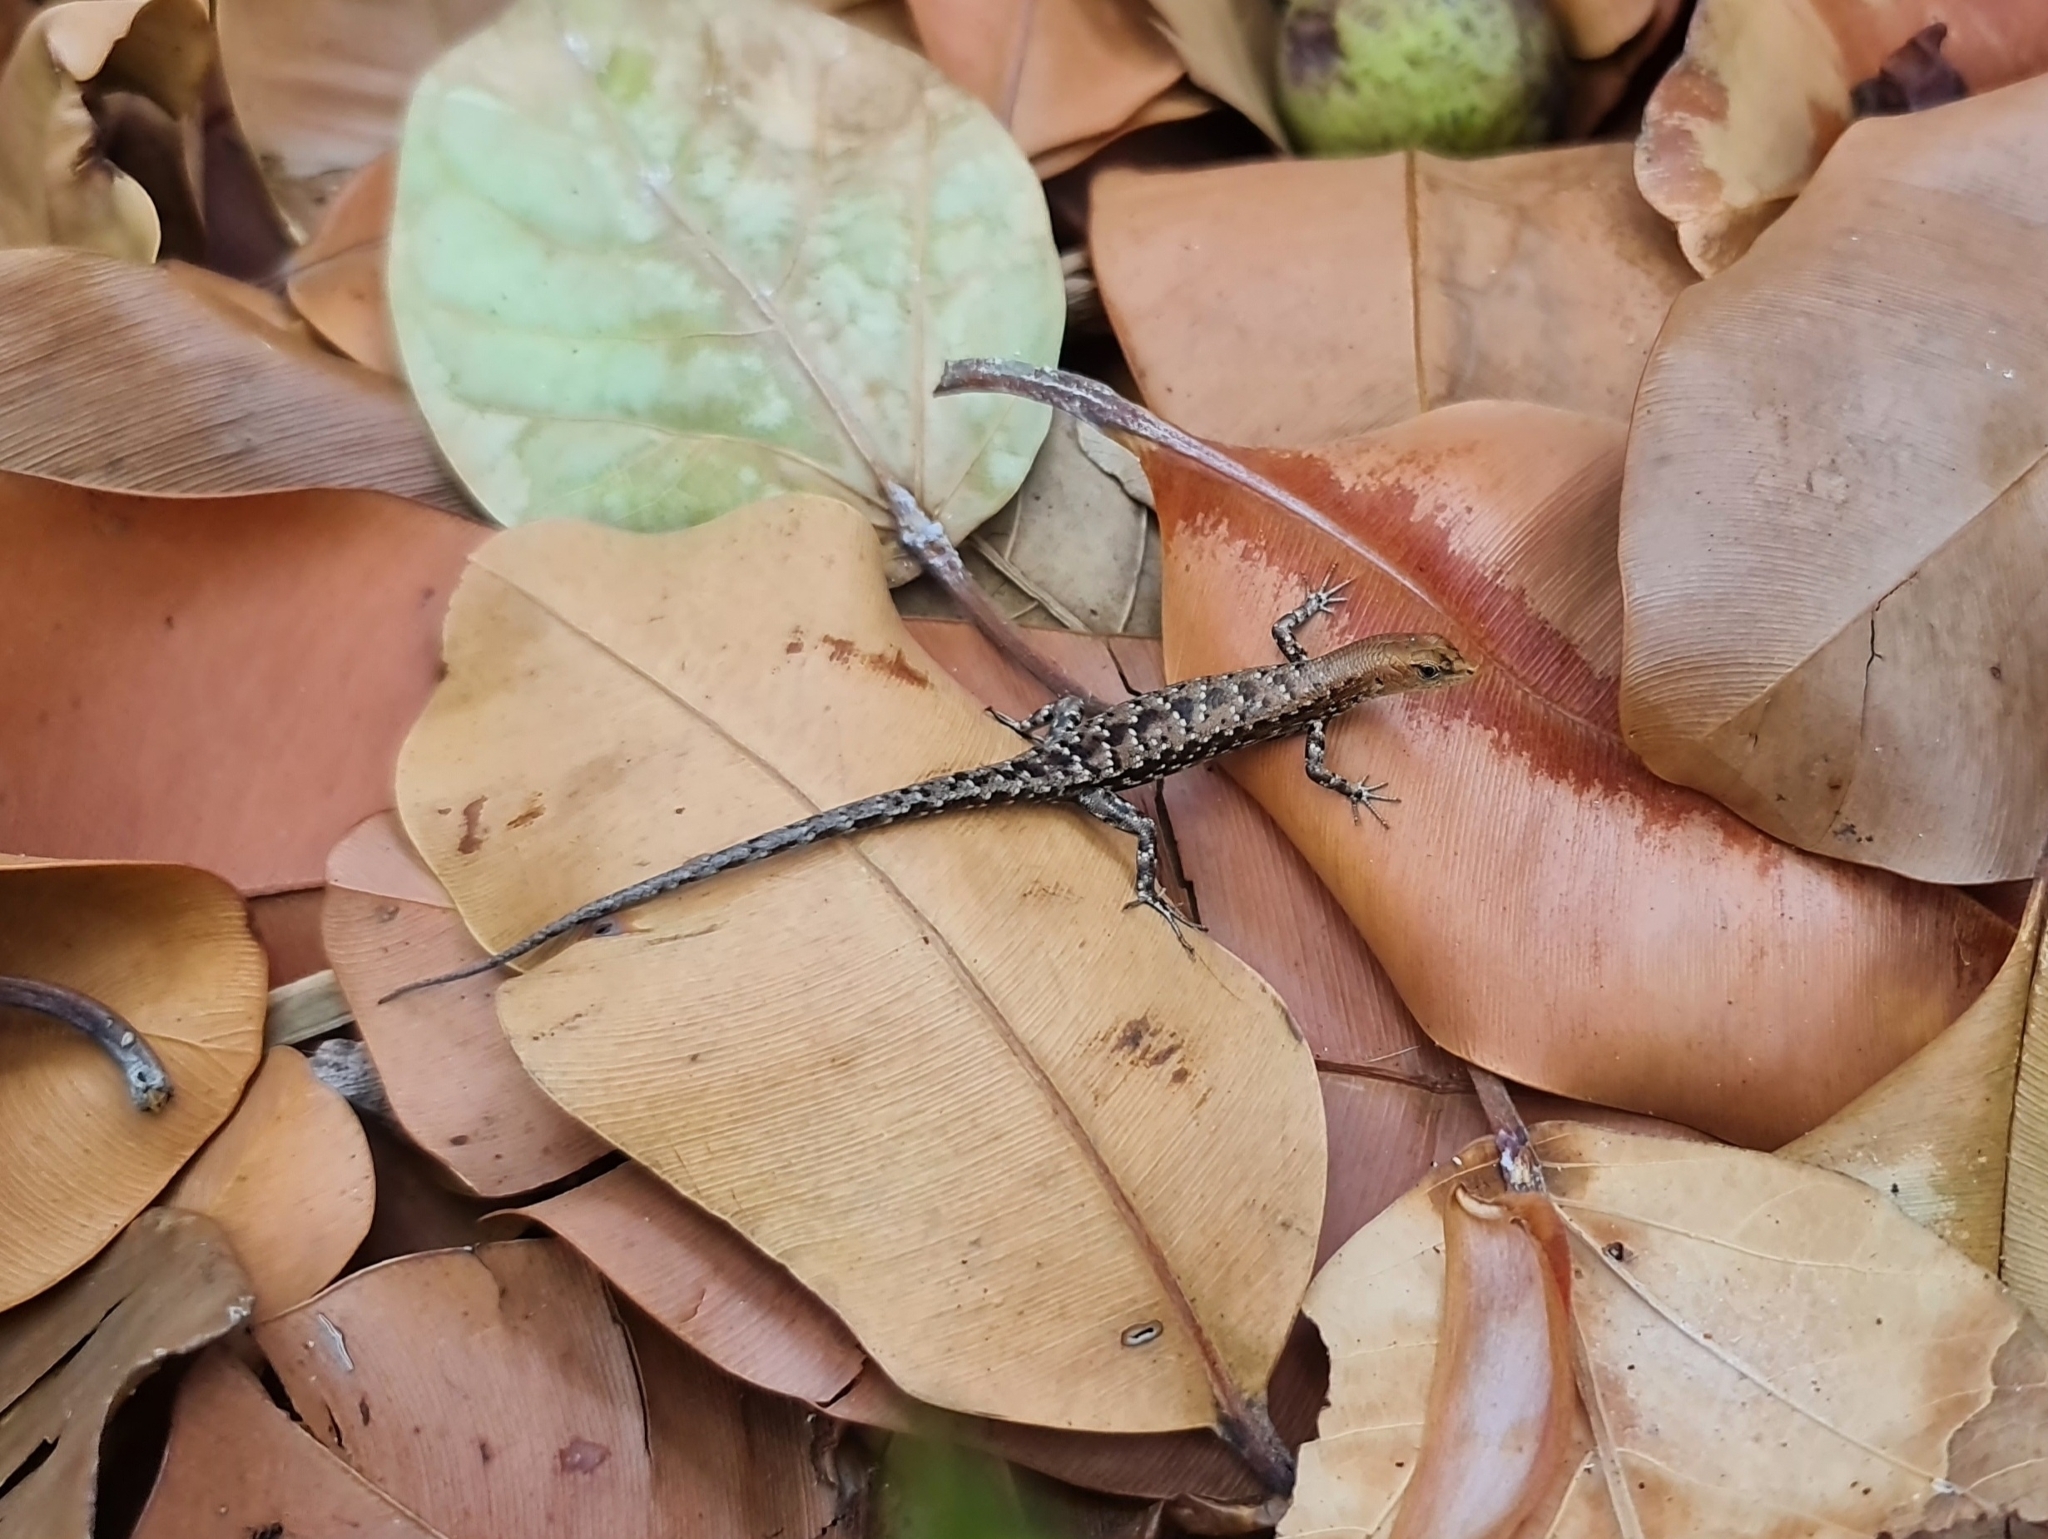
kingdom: Animalia
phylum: Chordata
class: Squamata
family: Scincidae
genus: Lampropholis
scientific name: Lampropholis mirabilis
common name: Saxicoline sunskink
